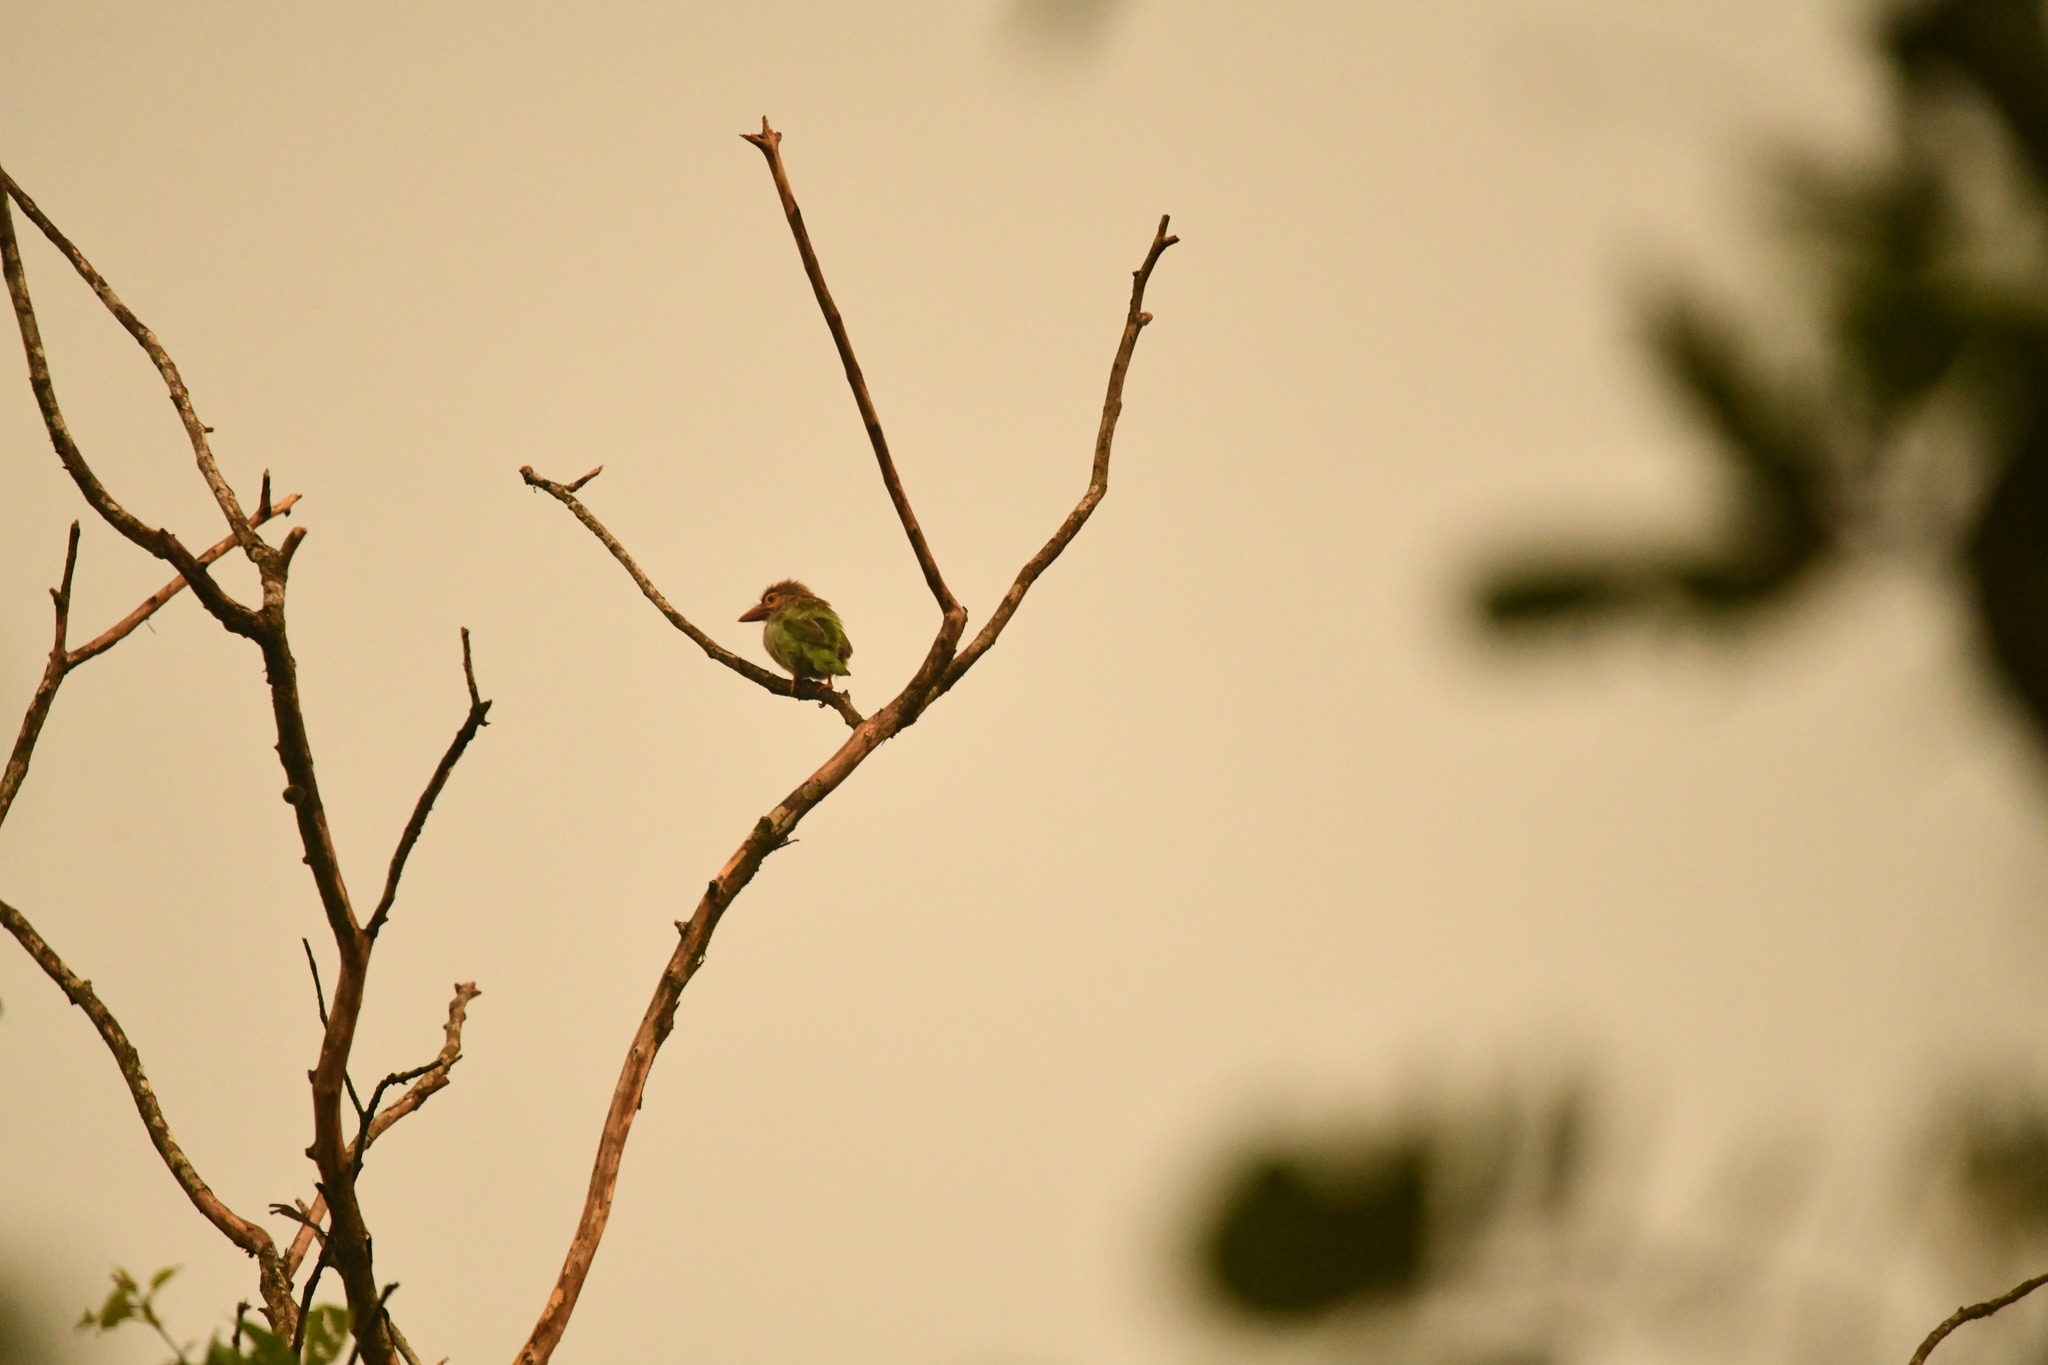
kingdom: Animalia
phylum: Chordata
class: Aves
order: Piciformes
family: Megalaimidae
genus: Psilopogon
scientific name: Psilopogon zeylanicus
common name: Brown-headed barbet
